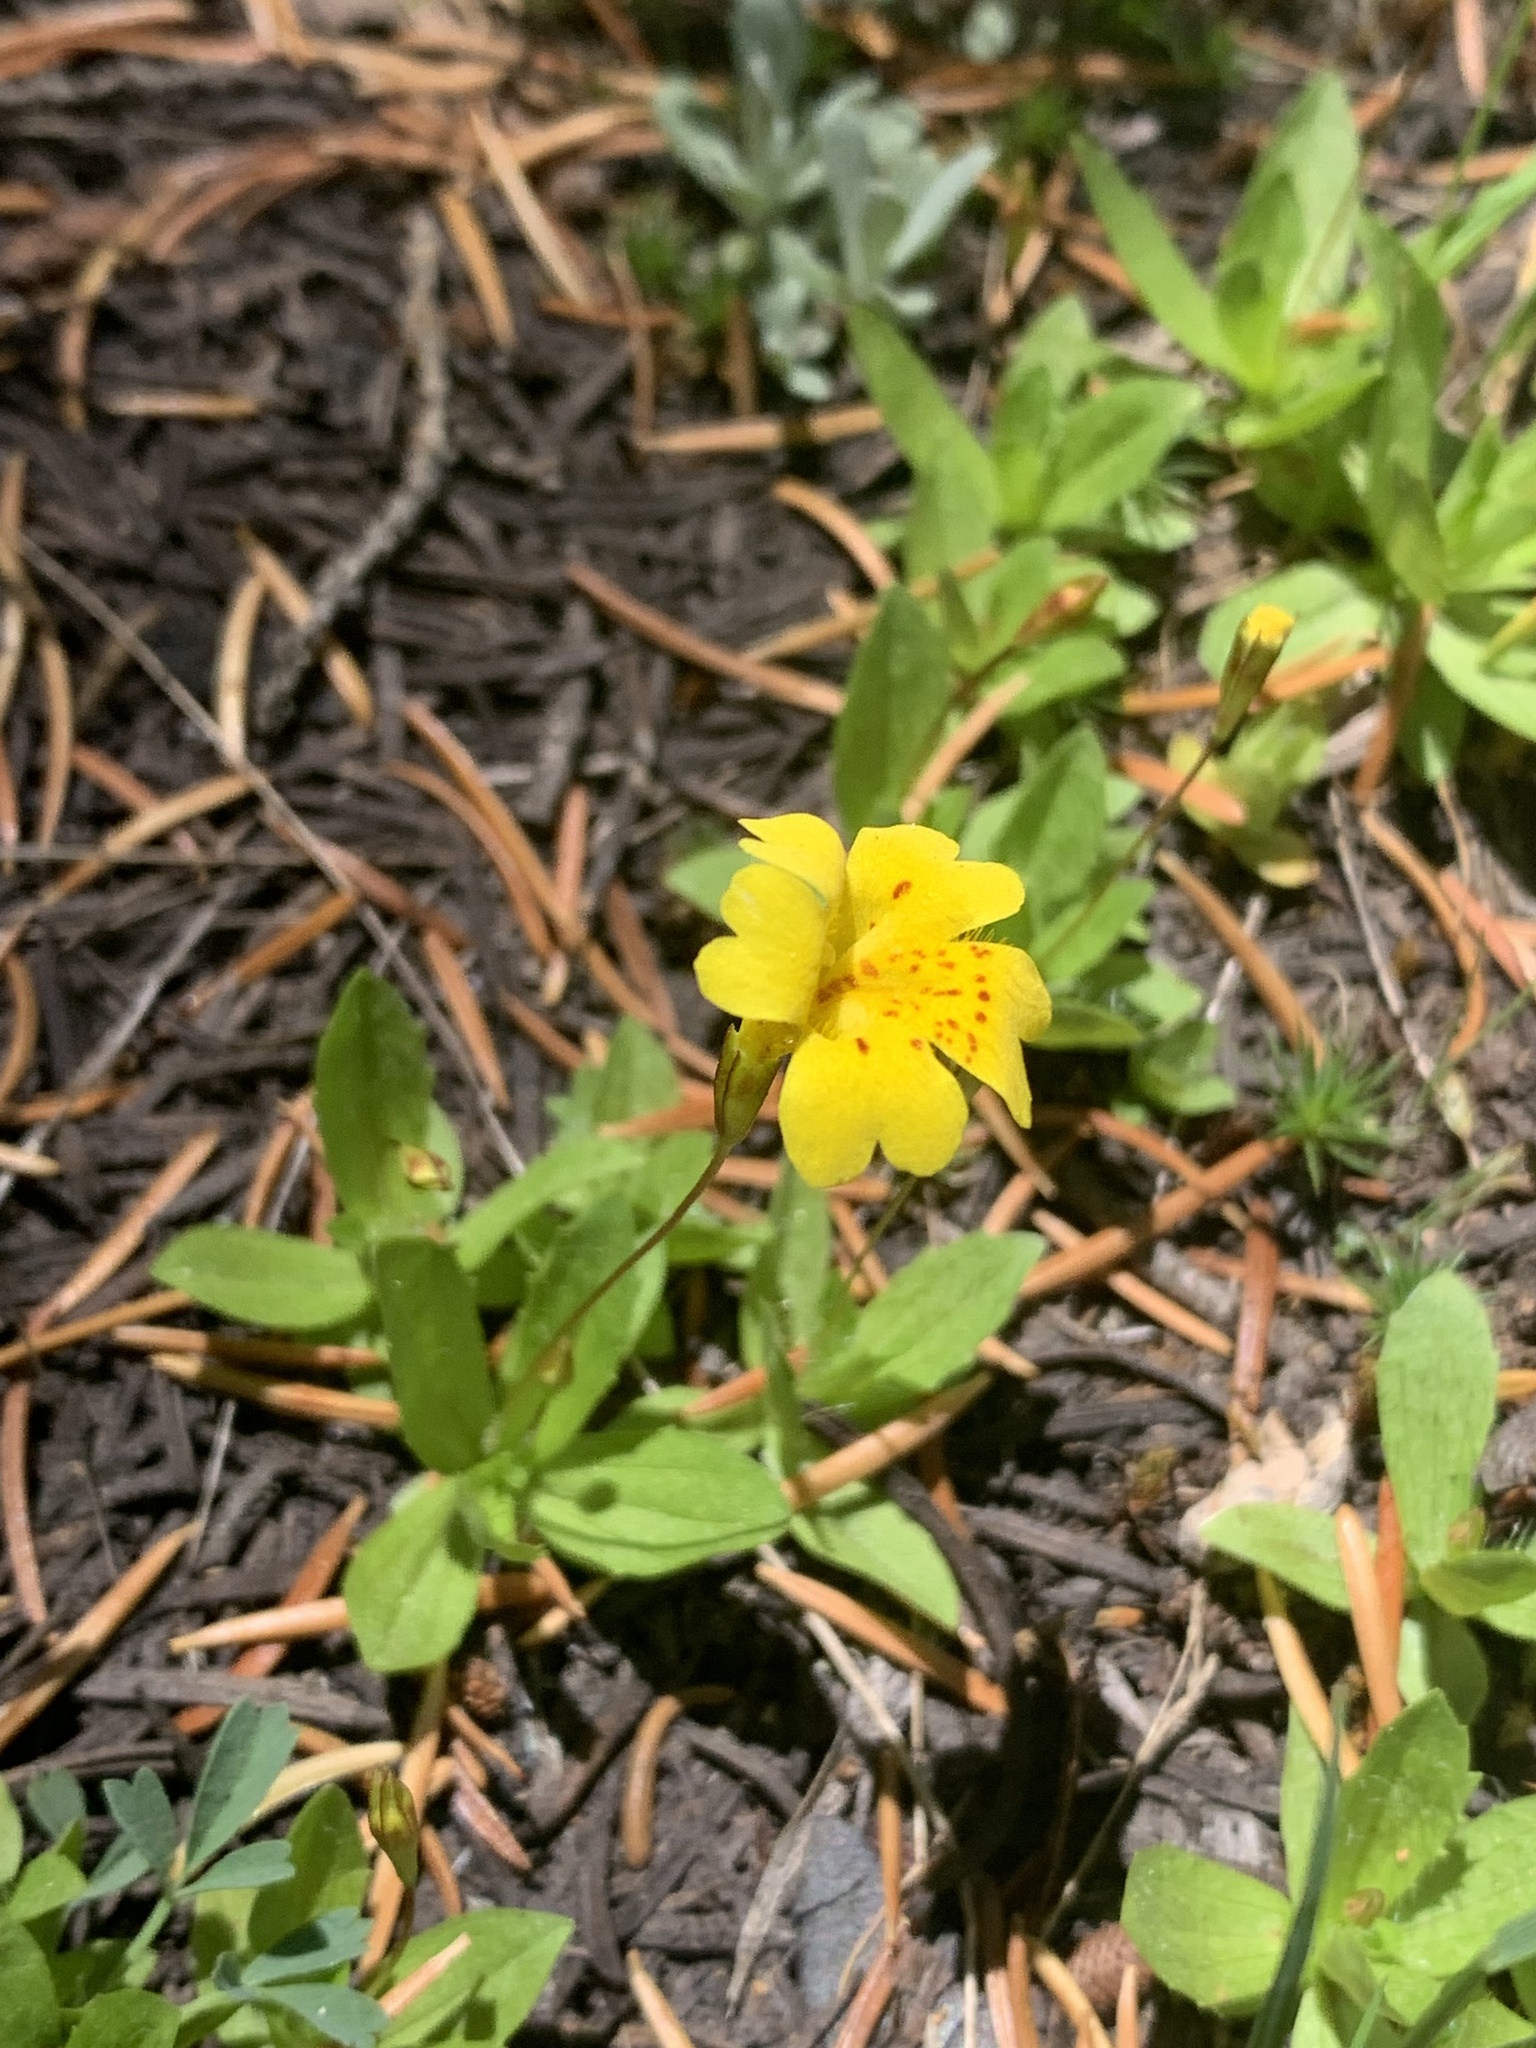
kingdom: Plantae
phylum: Tracheophyta
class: Magnoliopsida
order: Lamiales
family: Phrymaceae
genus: Erythranthe
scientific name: Erythranthe primuloides
